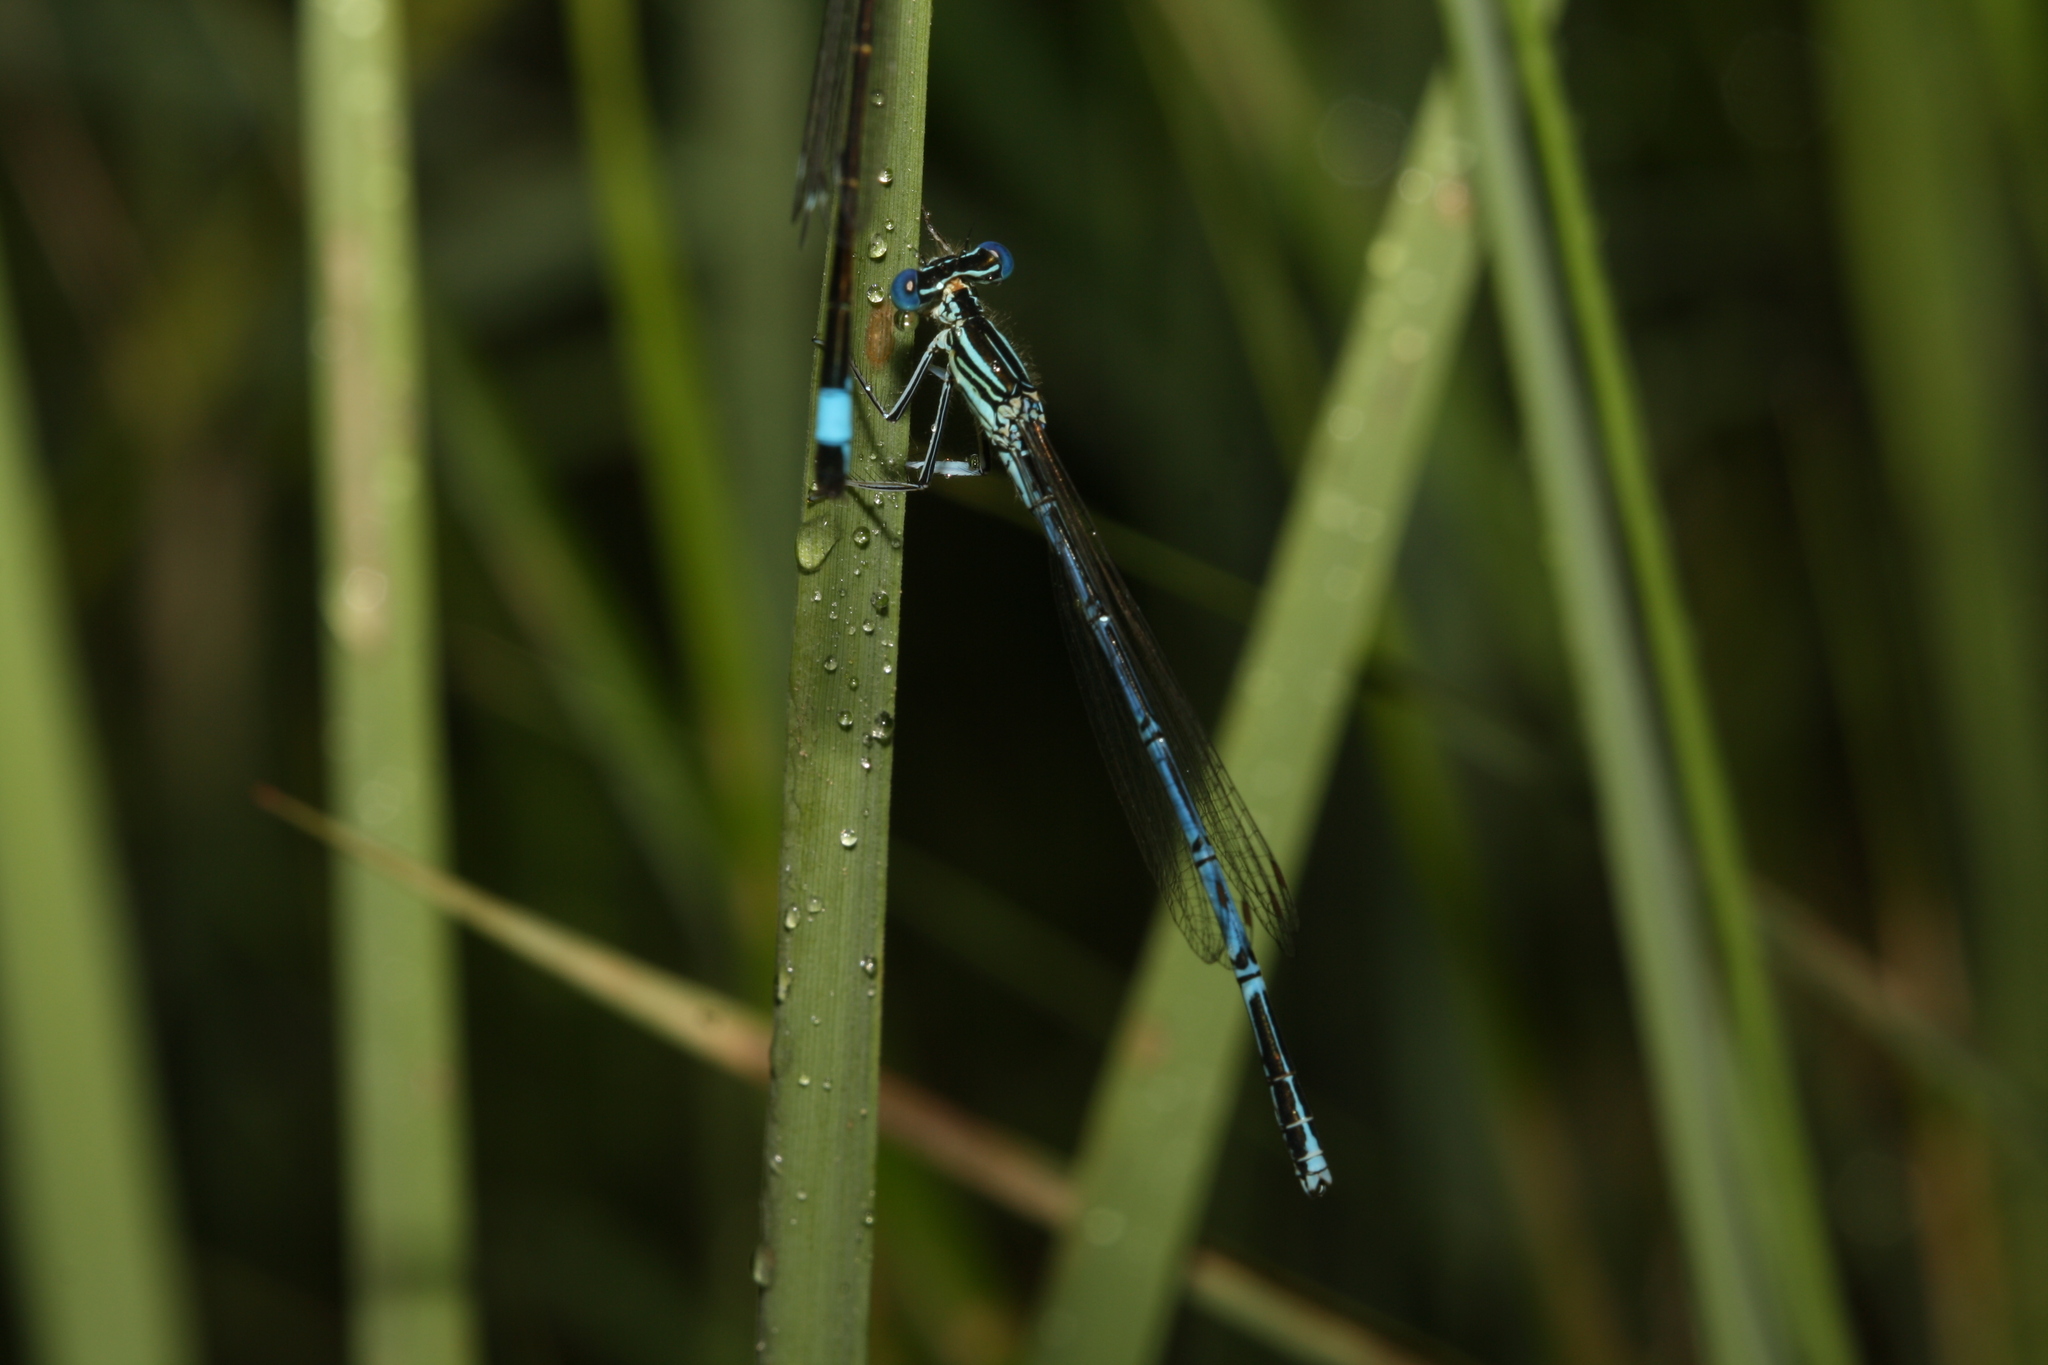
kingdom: Animalia
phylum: Arthropoda
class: Insecta
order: Odonata
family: Platycnemididae
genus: Platycnemis
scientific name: Platycnemis pennipes
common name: White-legged damselfly
